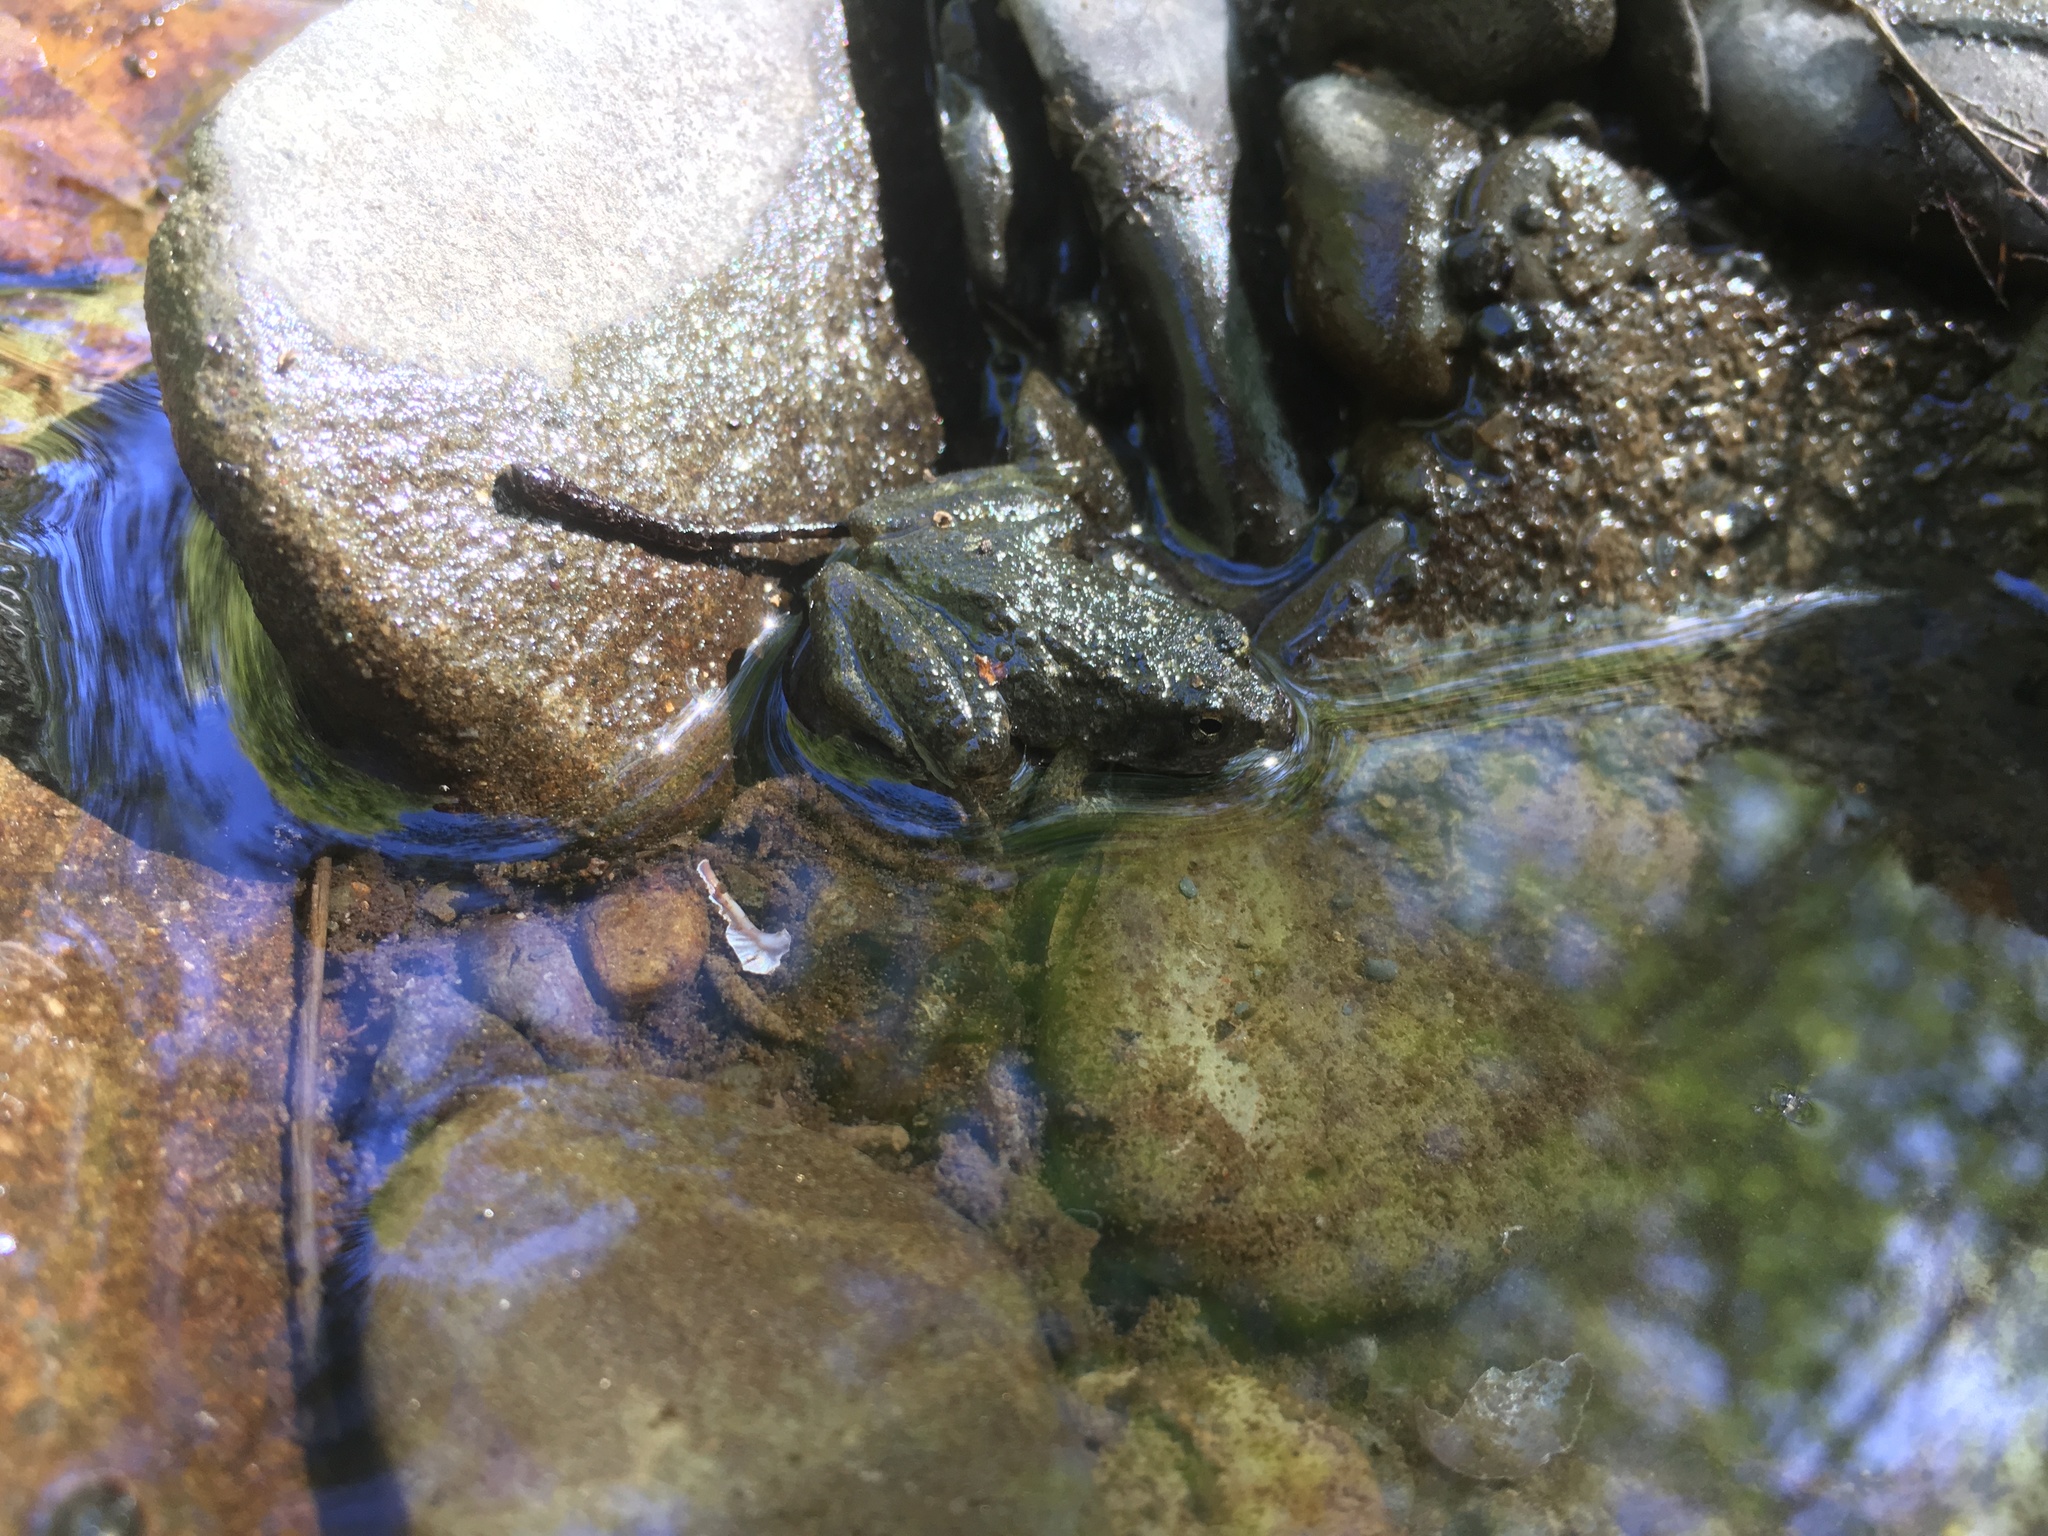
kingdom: Animalia
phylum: Chordata
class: Amphibia
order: Anura
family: Ranidae
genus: Rana
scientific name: Rana boylii
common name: Foothill yellow-legged frog
